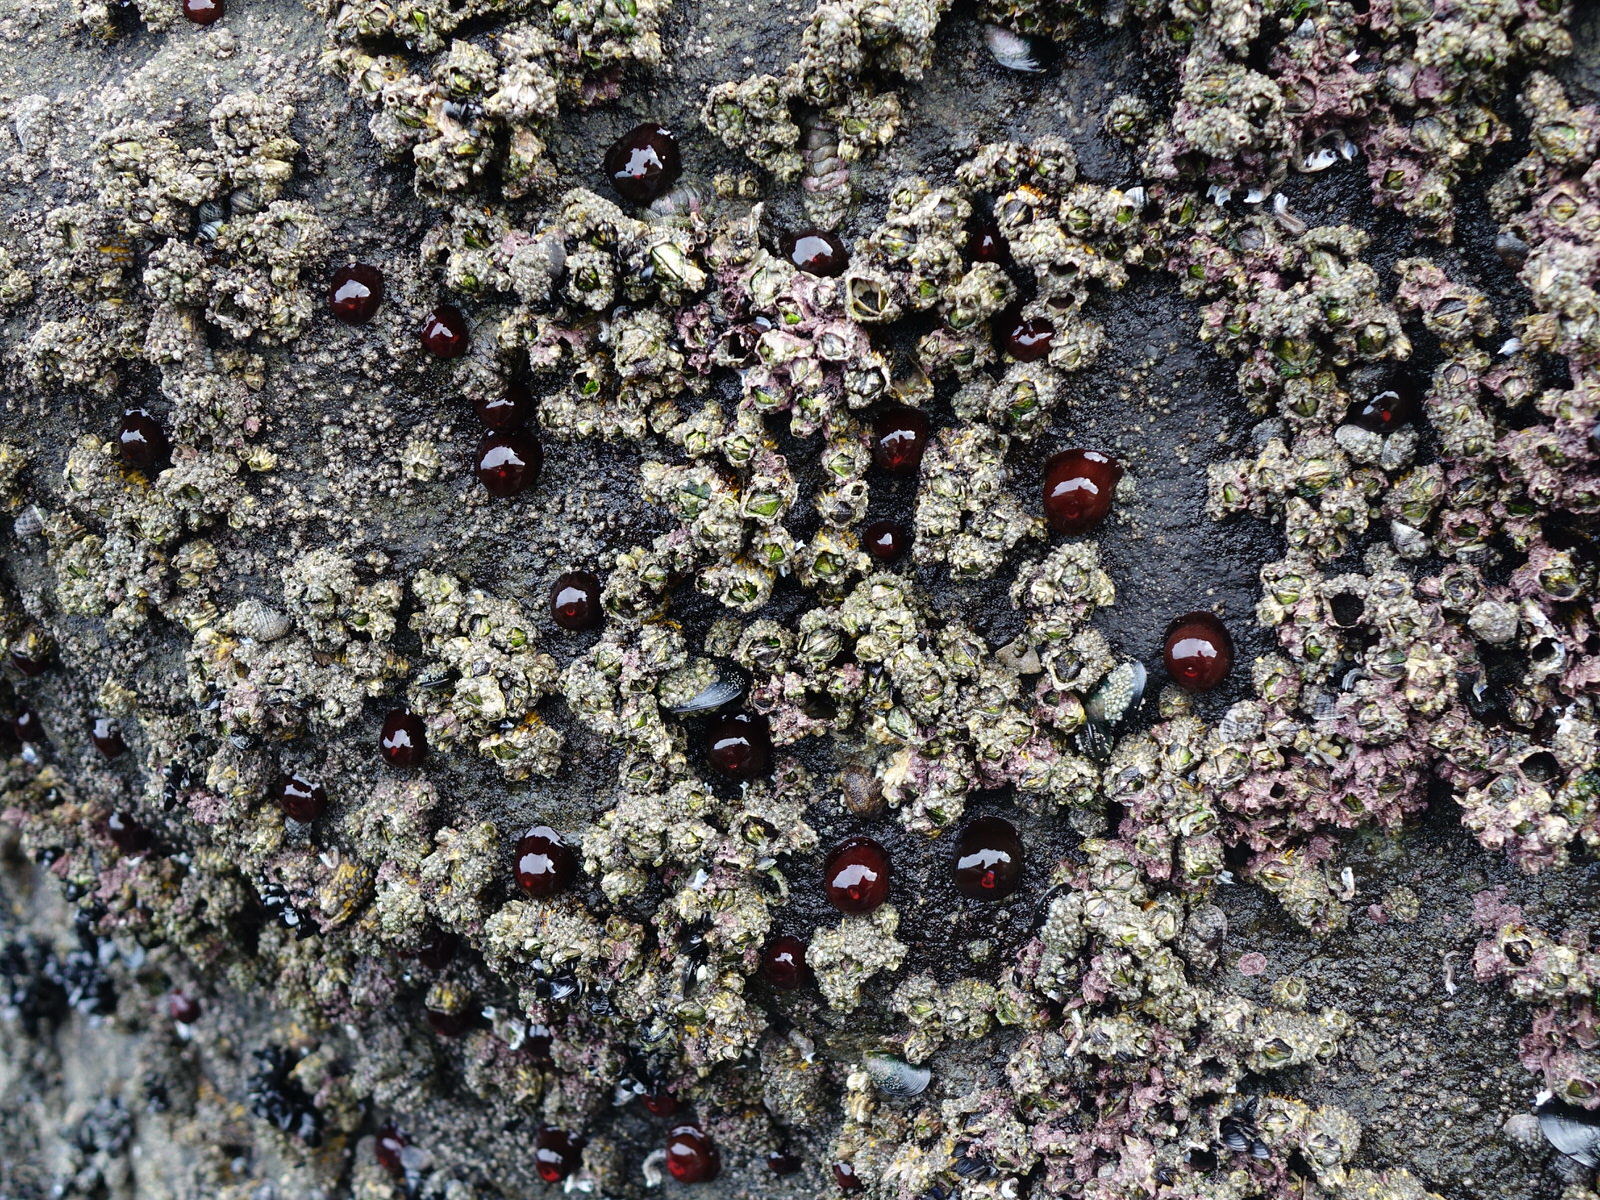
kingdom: Animalia
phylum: Cnidaria
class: Anthozoa
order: Actiniaria
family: Actiniidae
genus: Actinia
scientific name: Actinia tenebrosa
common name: Waratah anemone
